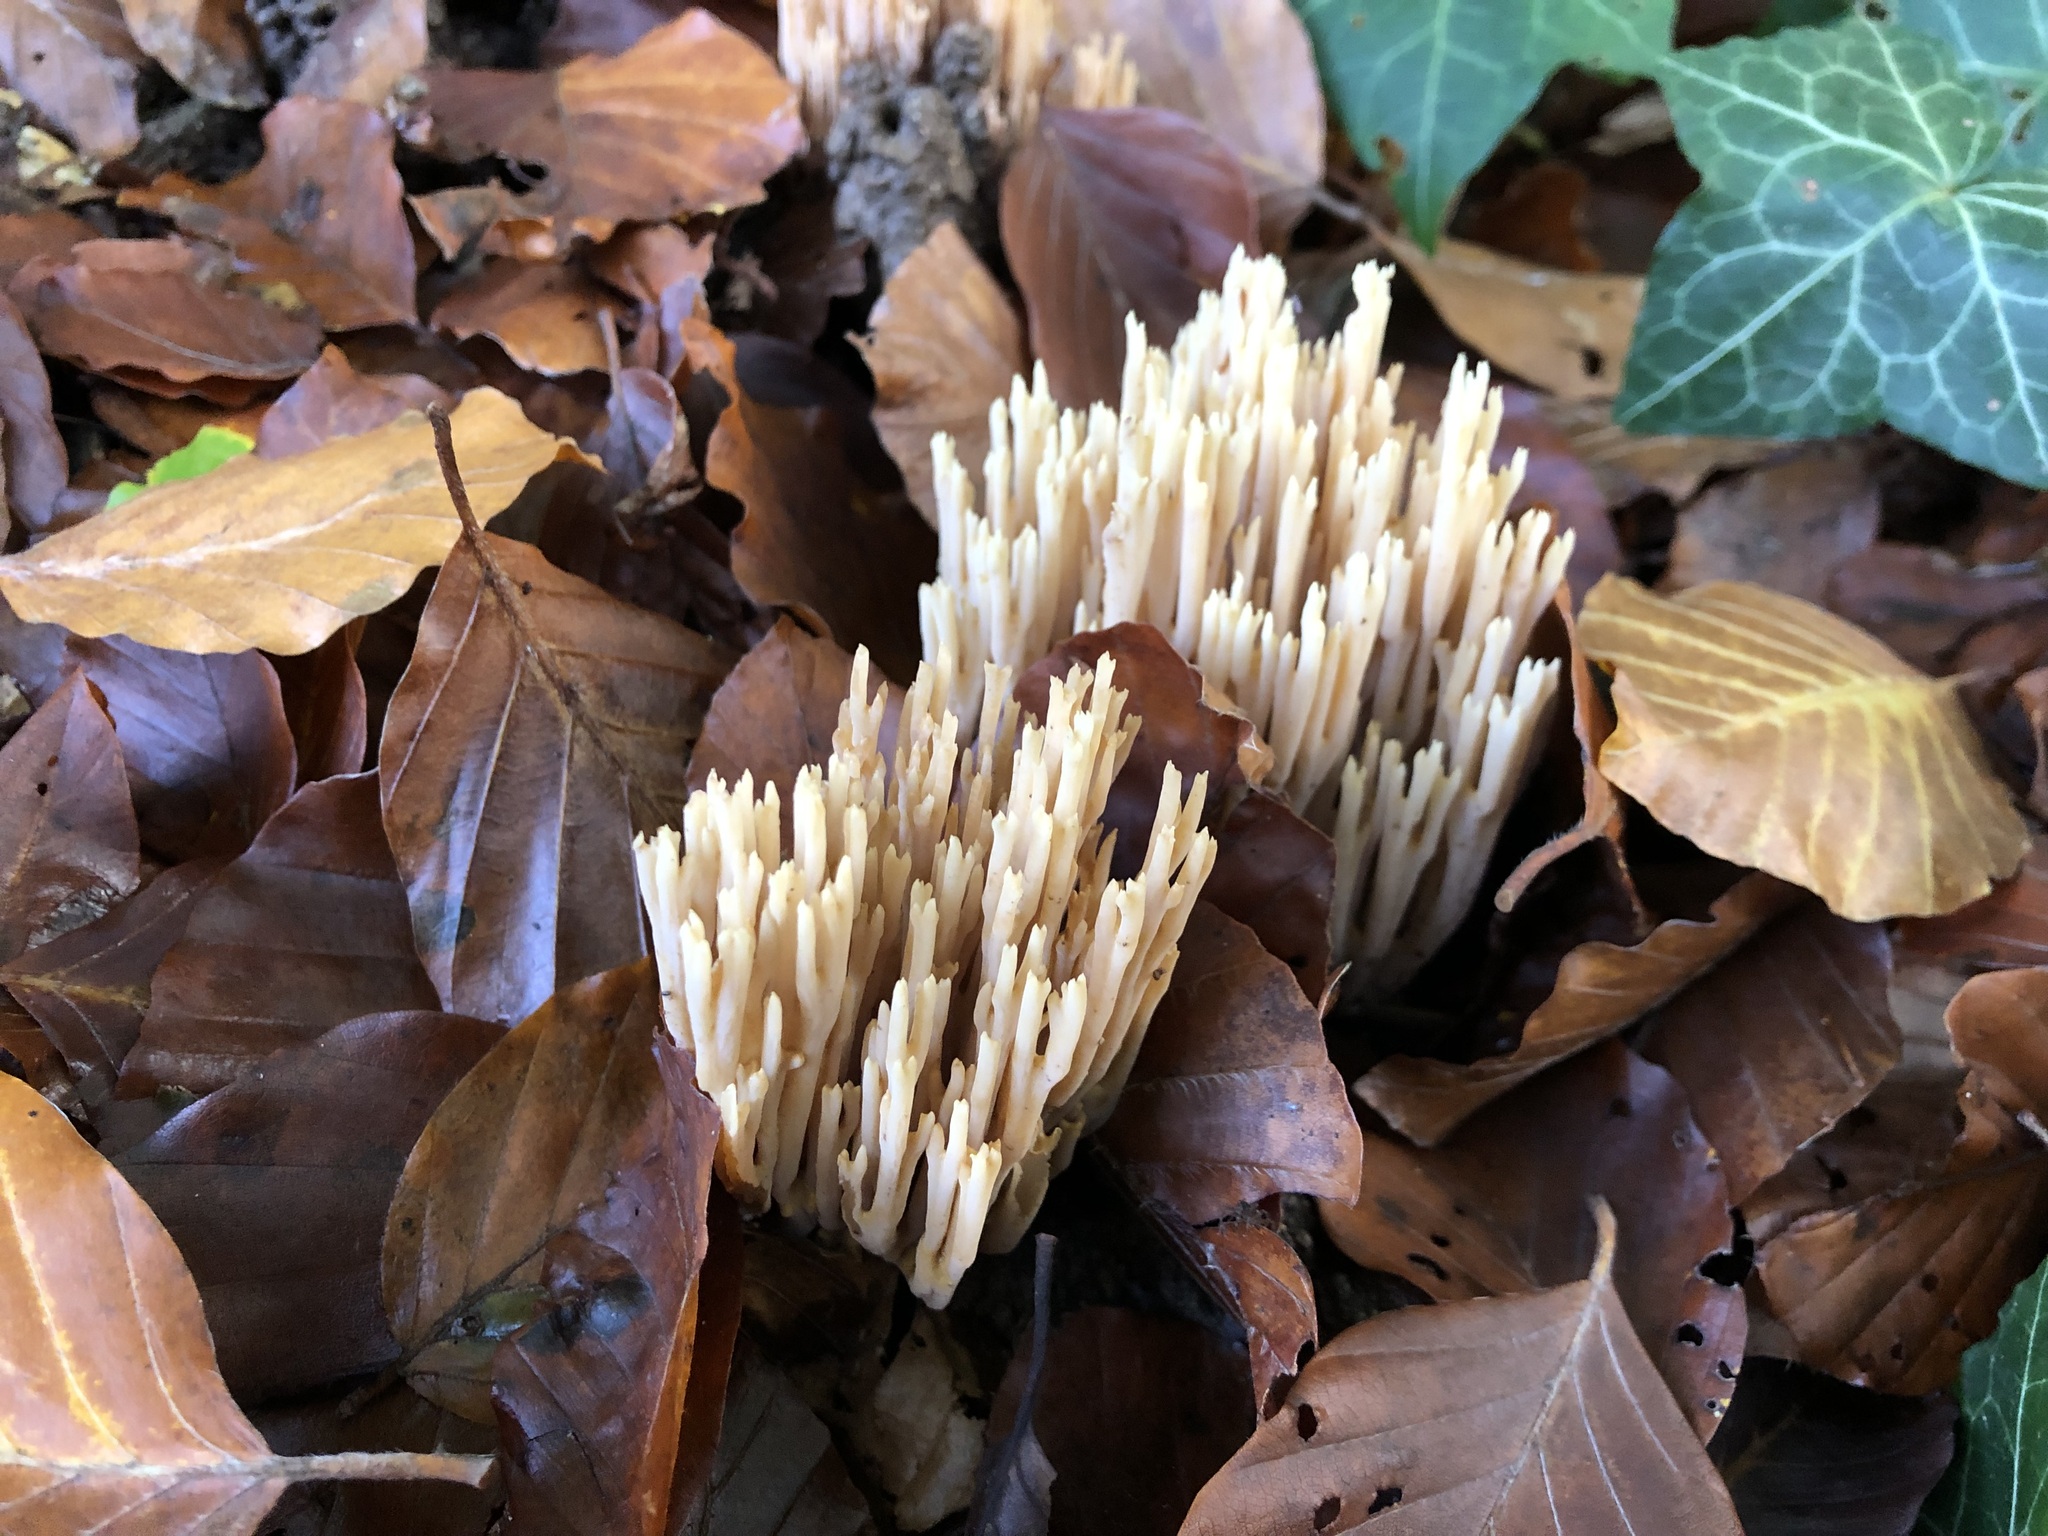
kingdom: Fungi
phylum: Basidiomycota
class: Agaricomycetes
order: Gomphales
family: Gomphaceae
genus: Ramaria
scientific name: Ramaria stricta
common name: Upright coral
